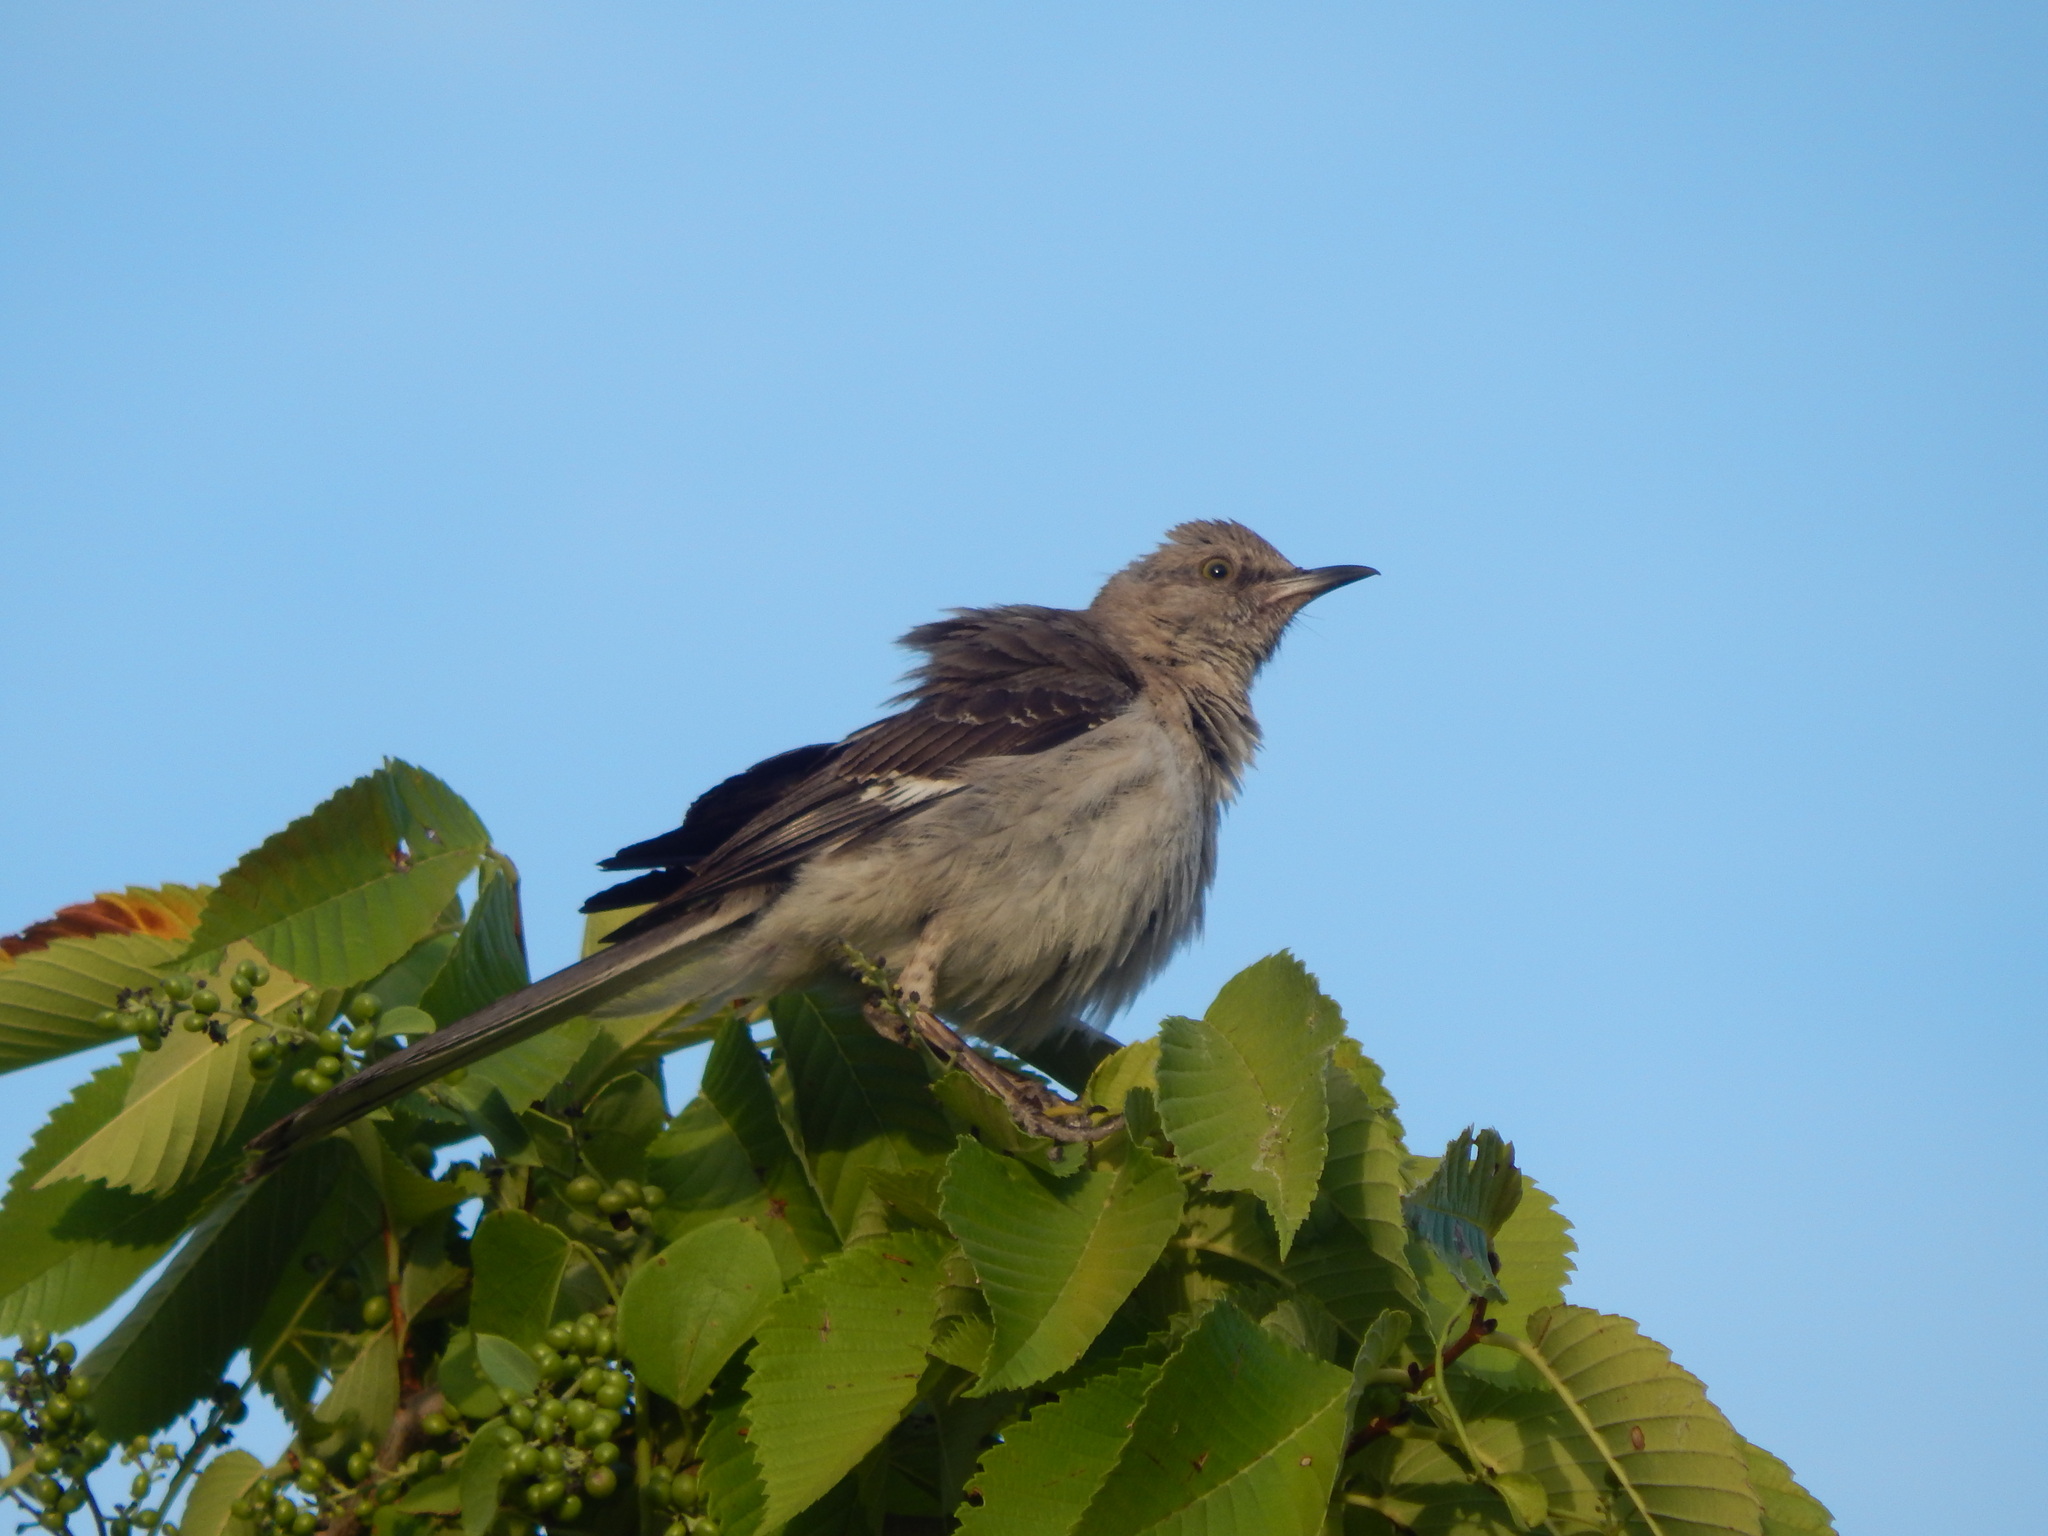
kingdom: Animalia
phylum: Chordata
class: Aves
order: Passeriformes
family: Mimidae
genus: Mimus
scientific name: Mimus polyglottos
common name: Northern mockingbird
